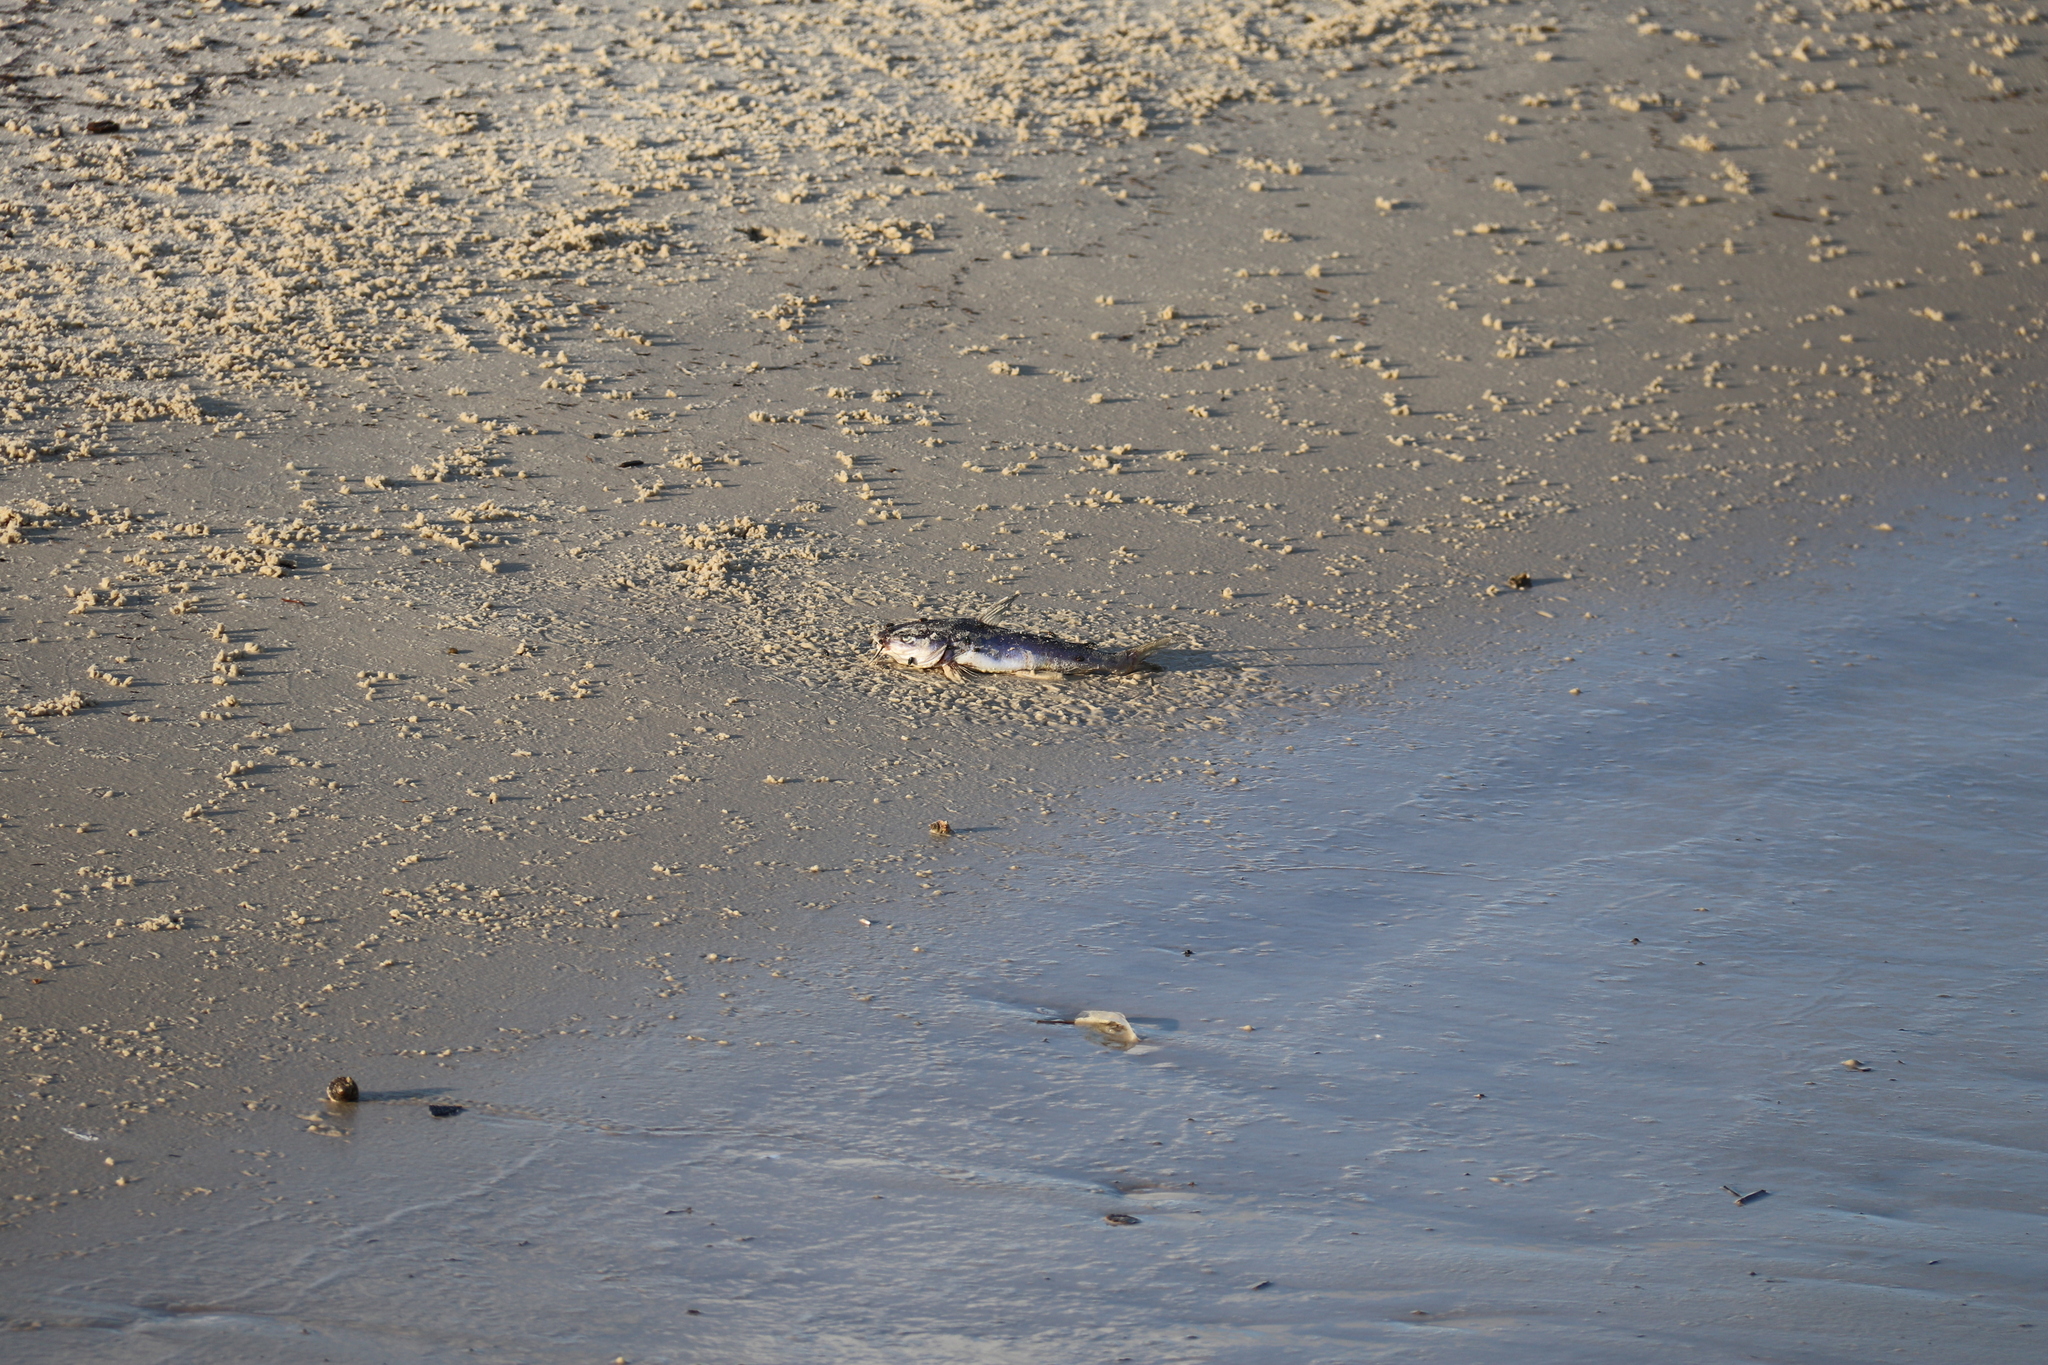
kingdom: Animalia
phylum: Chordata
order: Siluriformes
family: Ariidae
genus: Ariopsis
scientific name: Ariopsis felis
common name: Hardhead catfish
